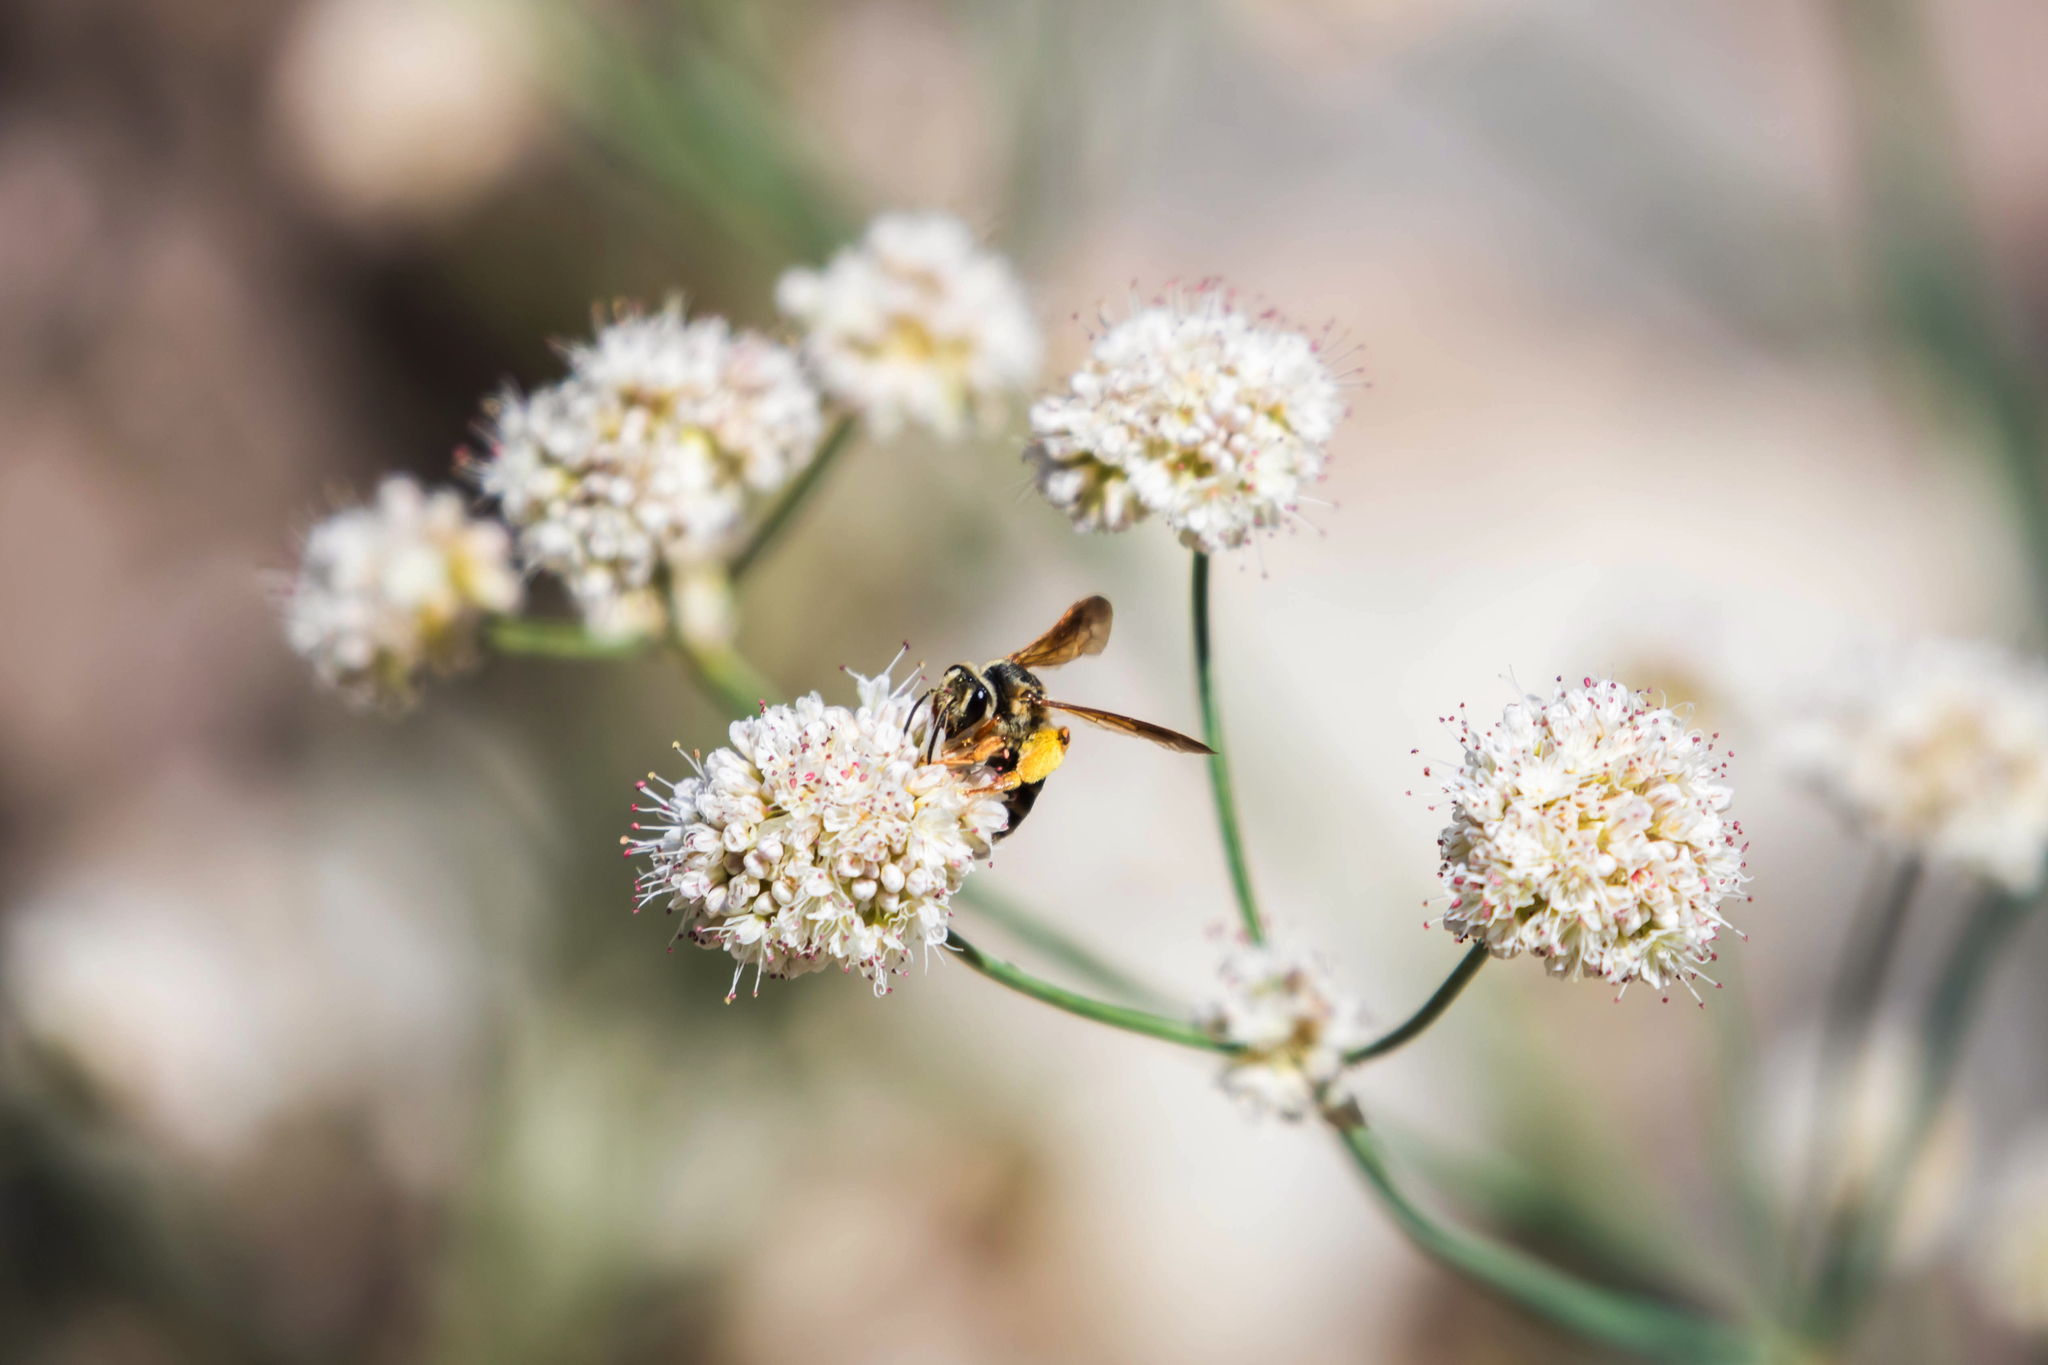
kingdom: Animalia
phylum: Arthropoda
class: Insecta
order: Hymenoptera
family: Andrenidae
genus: Andrena
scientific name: Andrena prunorum
